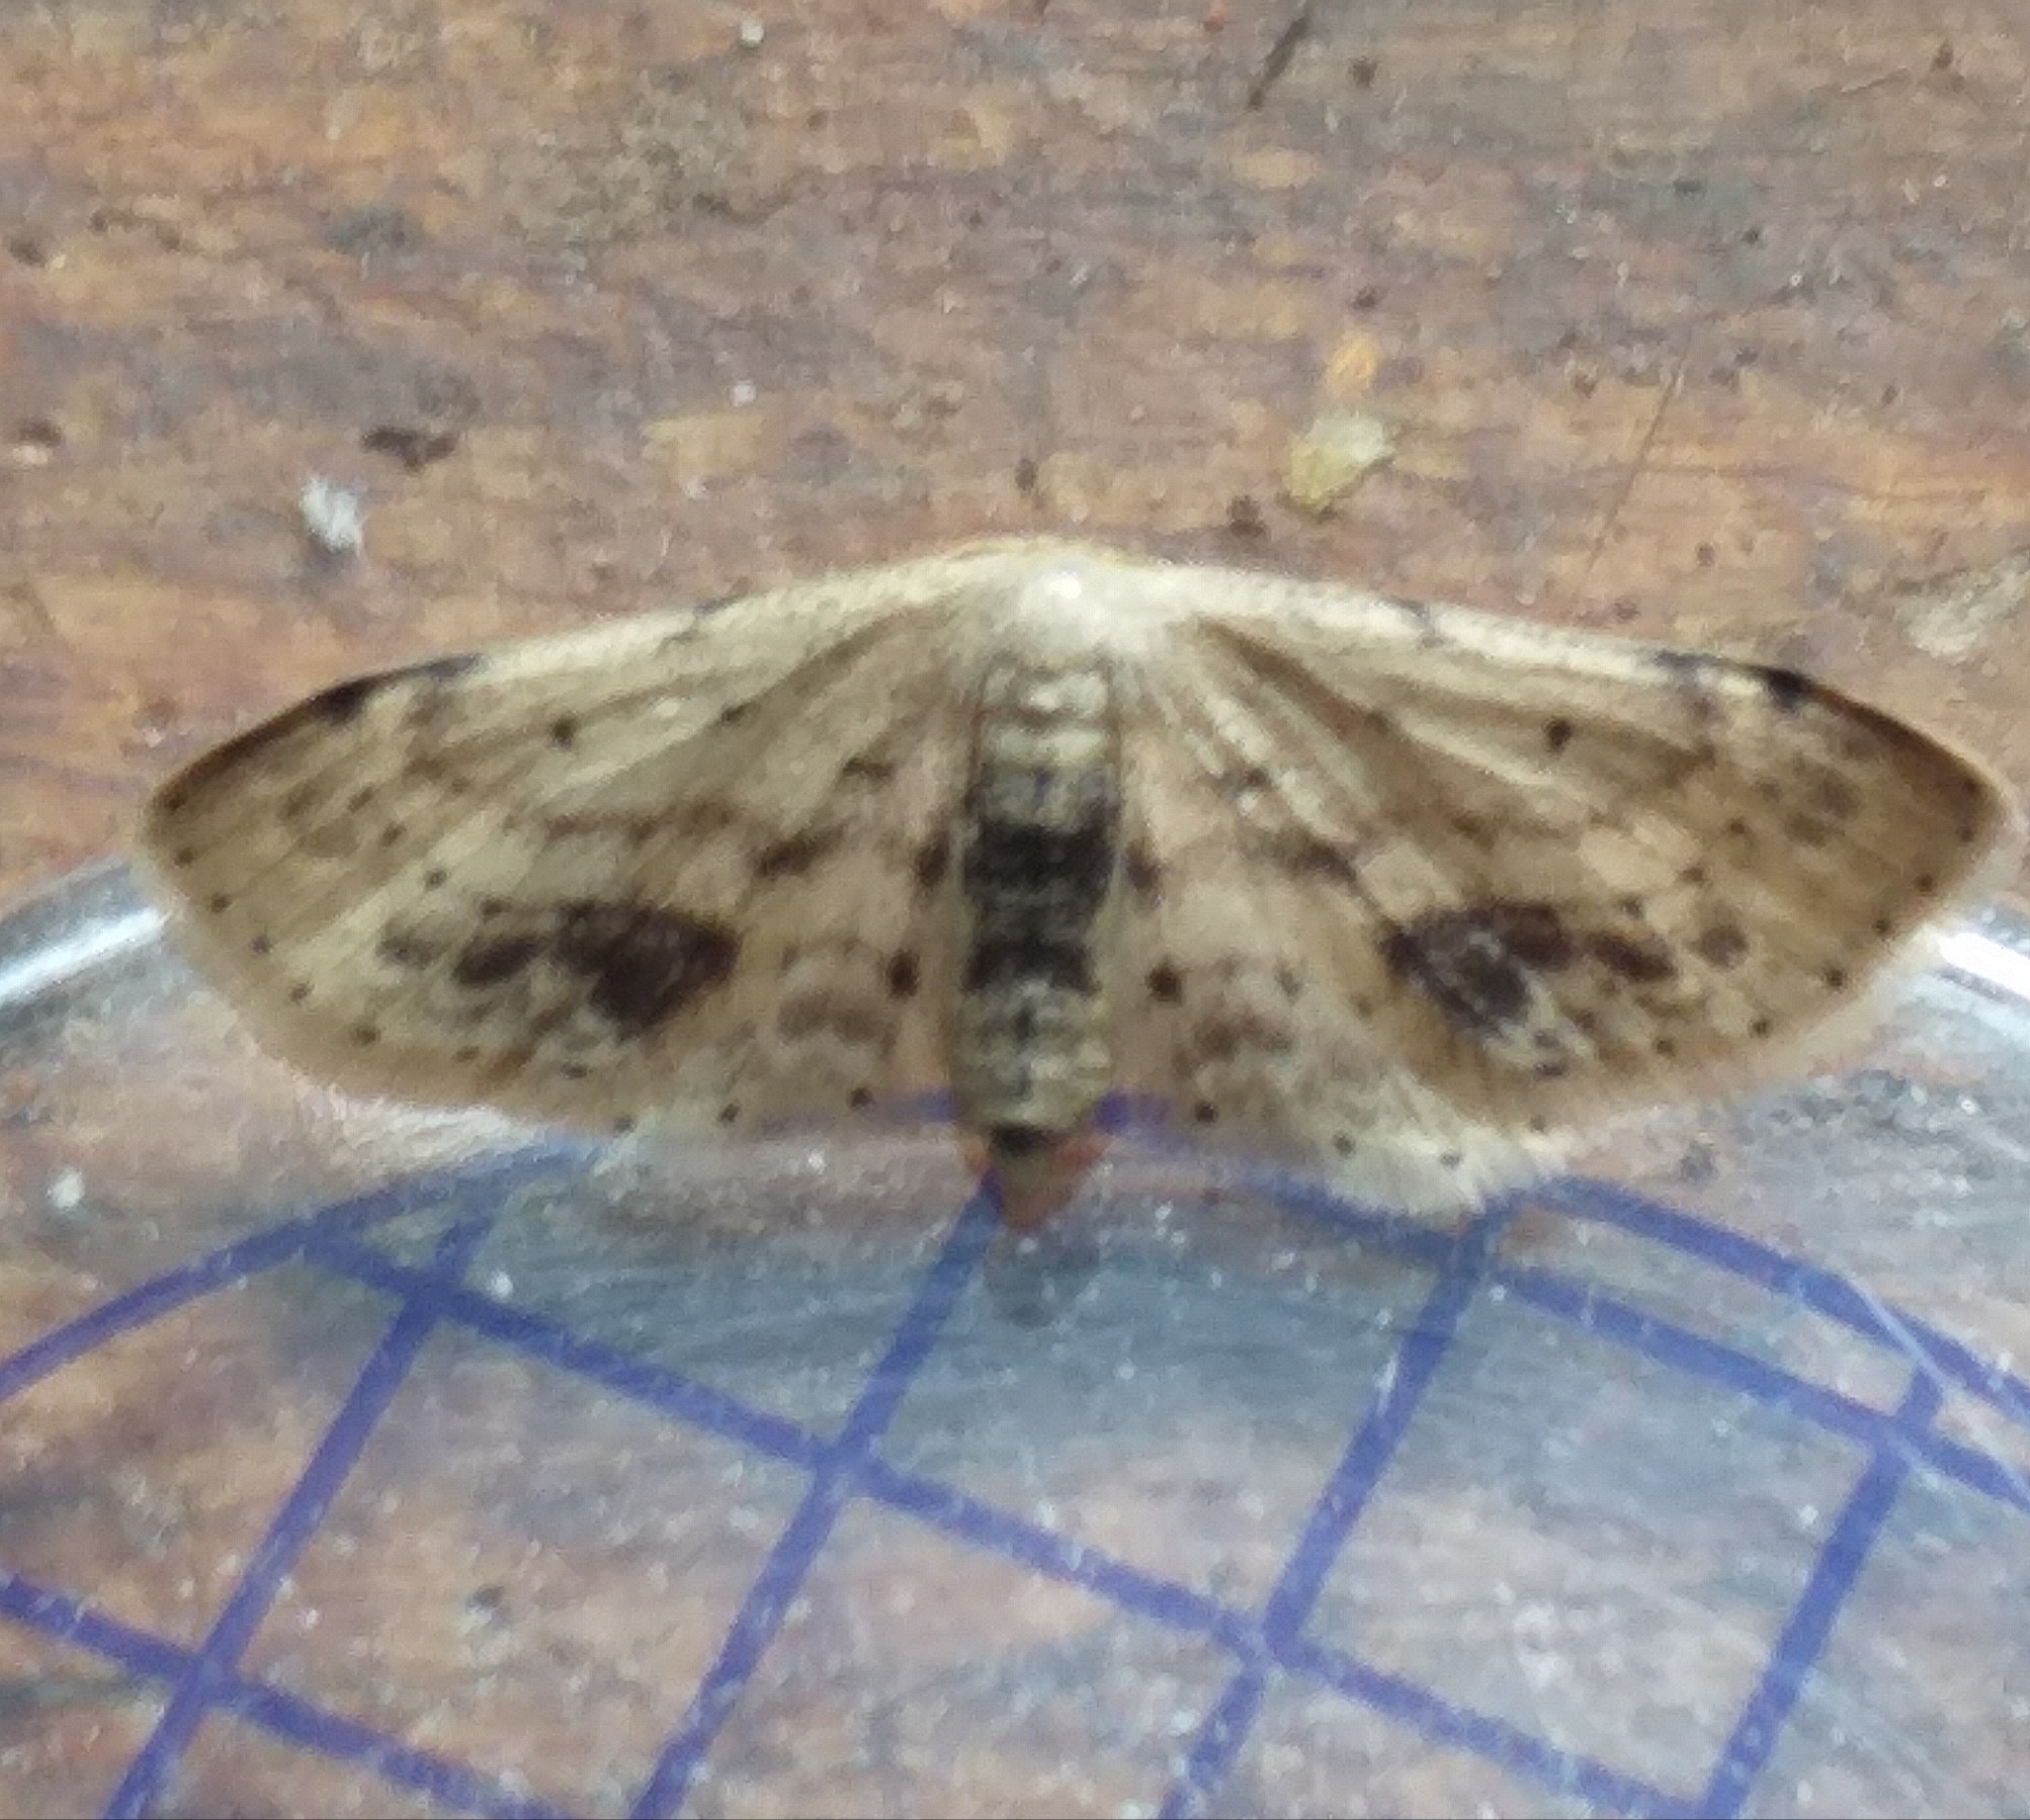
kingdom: Animalia
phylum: Arthropoda
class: Insecta
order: Lepidoptera
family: Geometridae
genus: Idaea
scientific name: Idaea dimidiata
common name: Single-dotted wave
